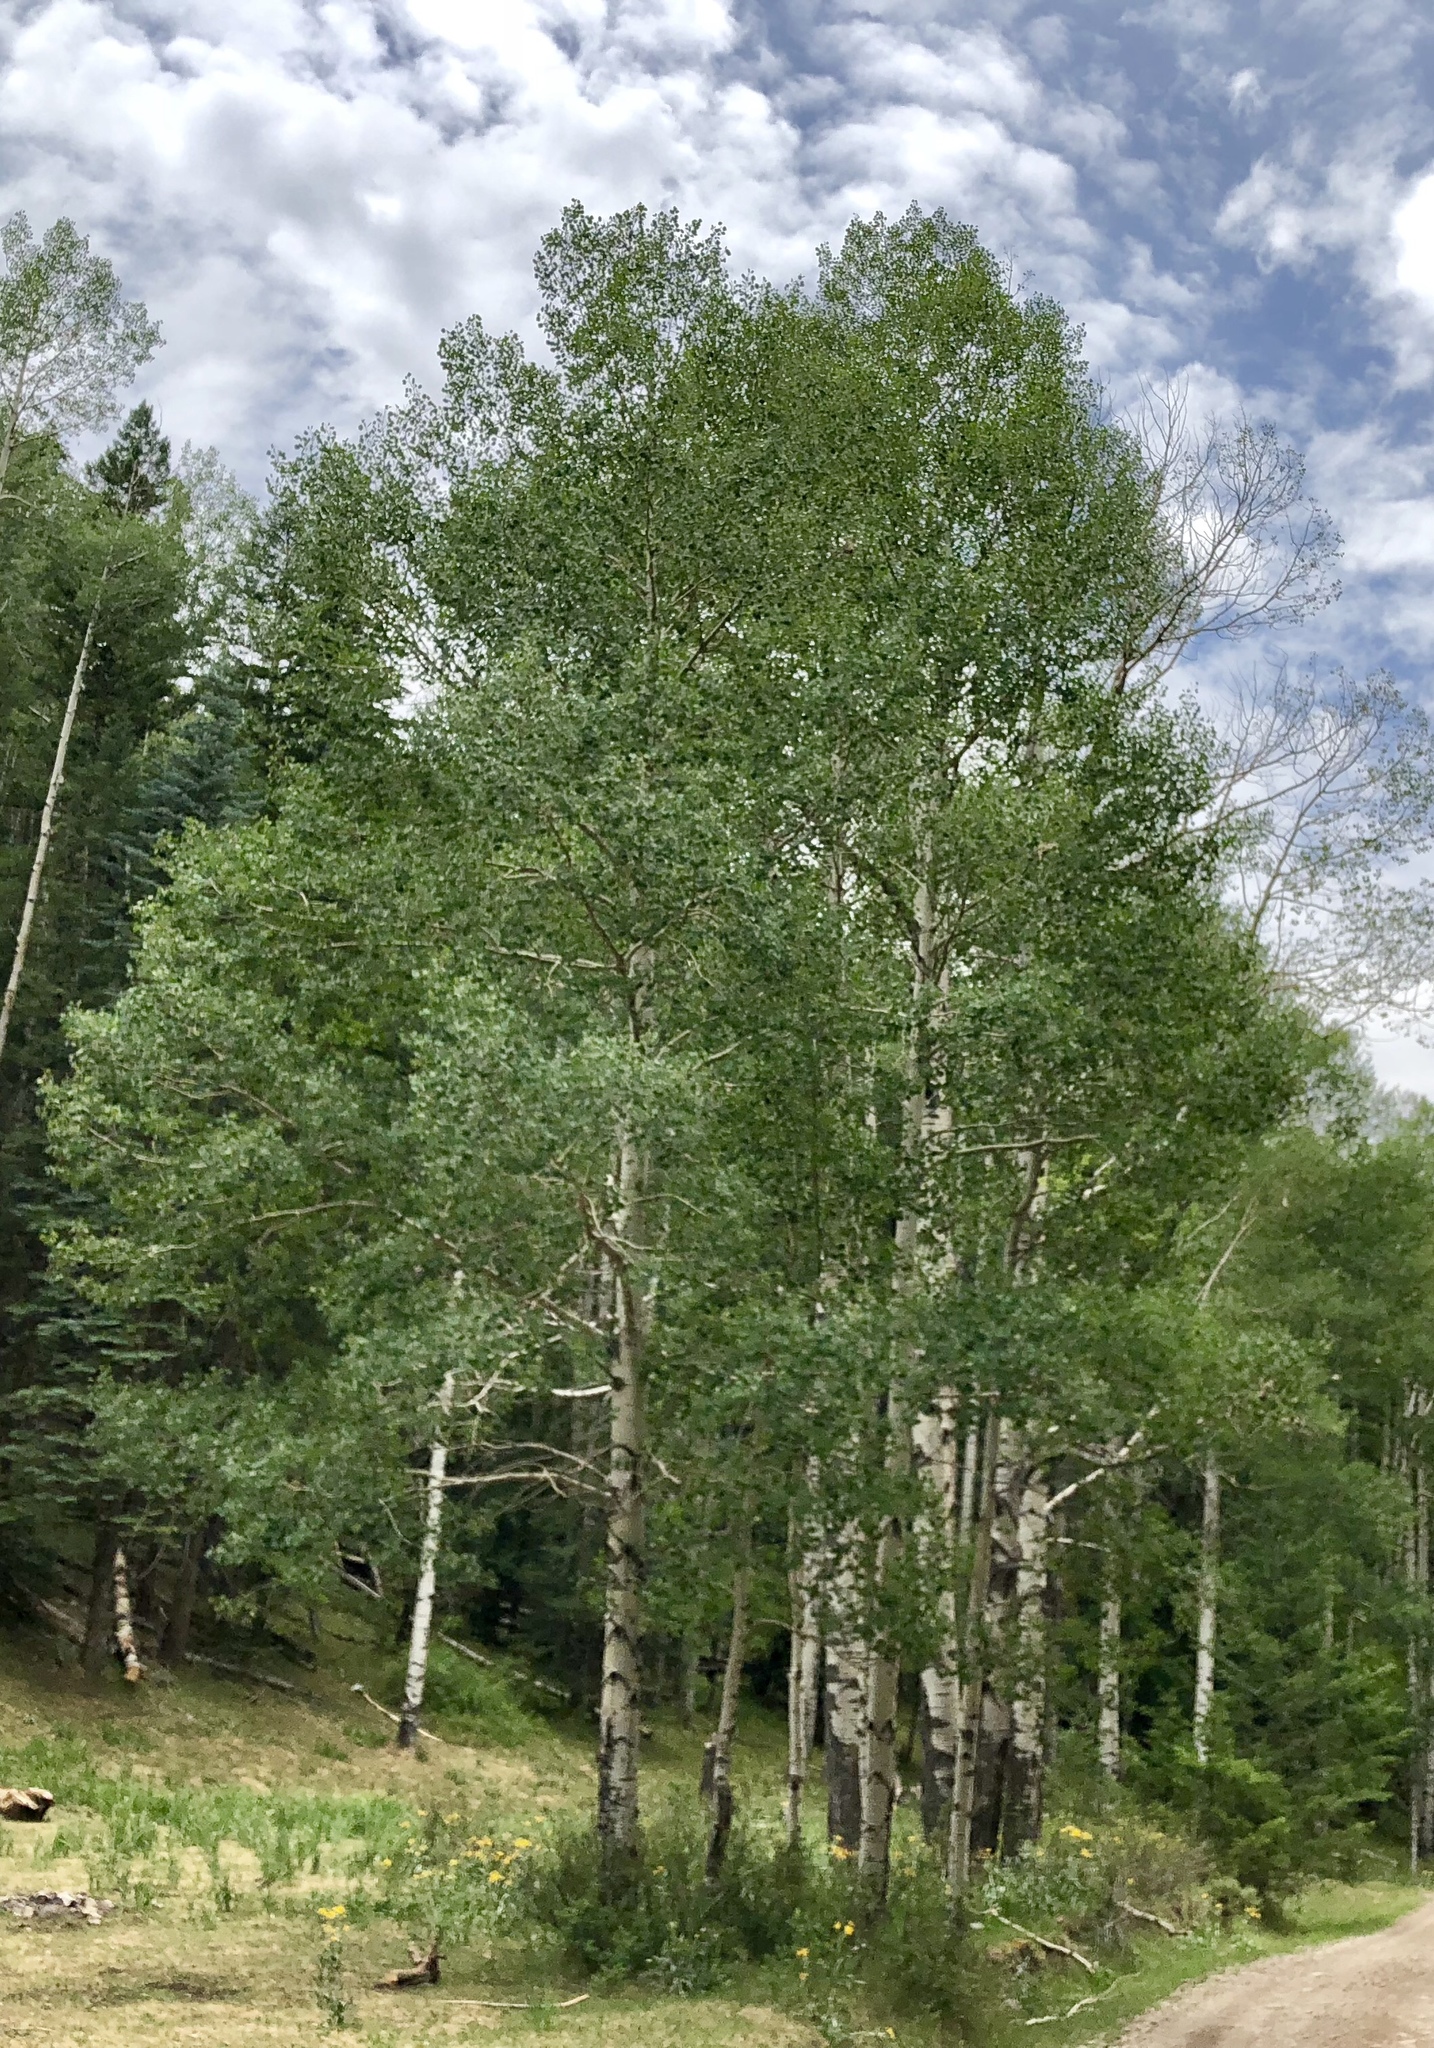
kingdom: Plantae
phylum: Tracheophyta
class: Magnoliopsida
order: Malpighiales
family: Salicaceae
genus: Populus
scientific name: Populus tremuloides
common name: Quaking aspen
